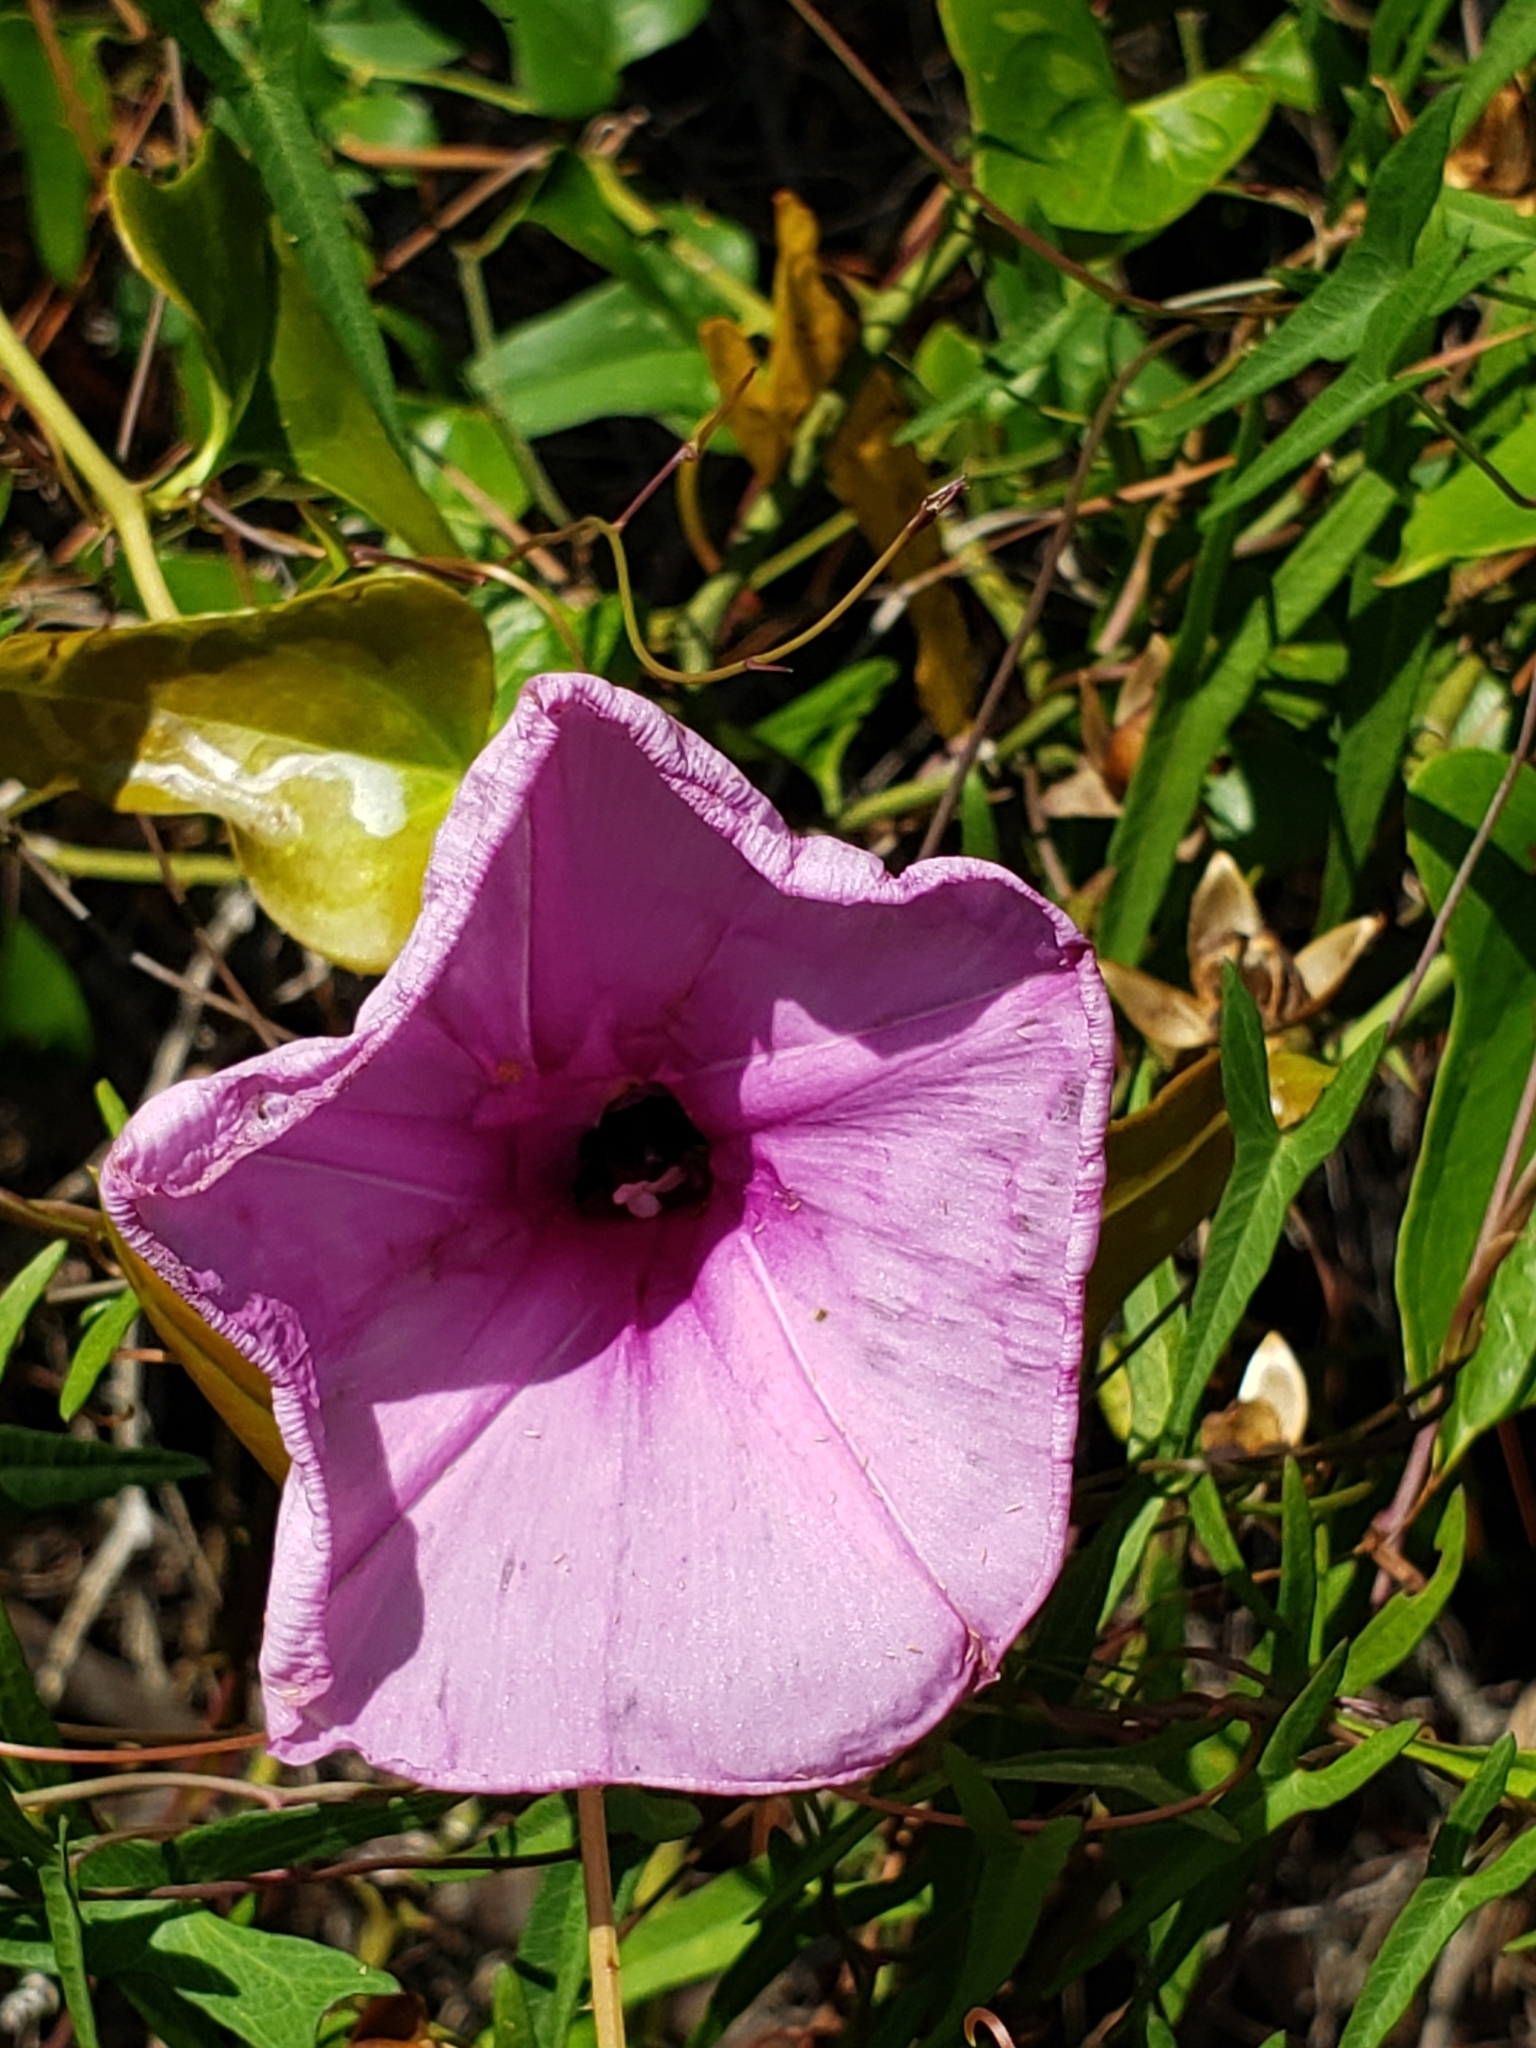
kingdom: Plantae
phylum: Tracheophyta
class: Magnoliopsida
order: Solanales
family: Convolvulaceae
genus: Ipomoea
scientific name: Ipomoea sagittata
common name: Saltmarsh morning glory
